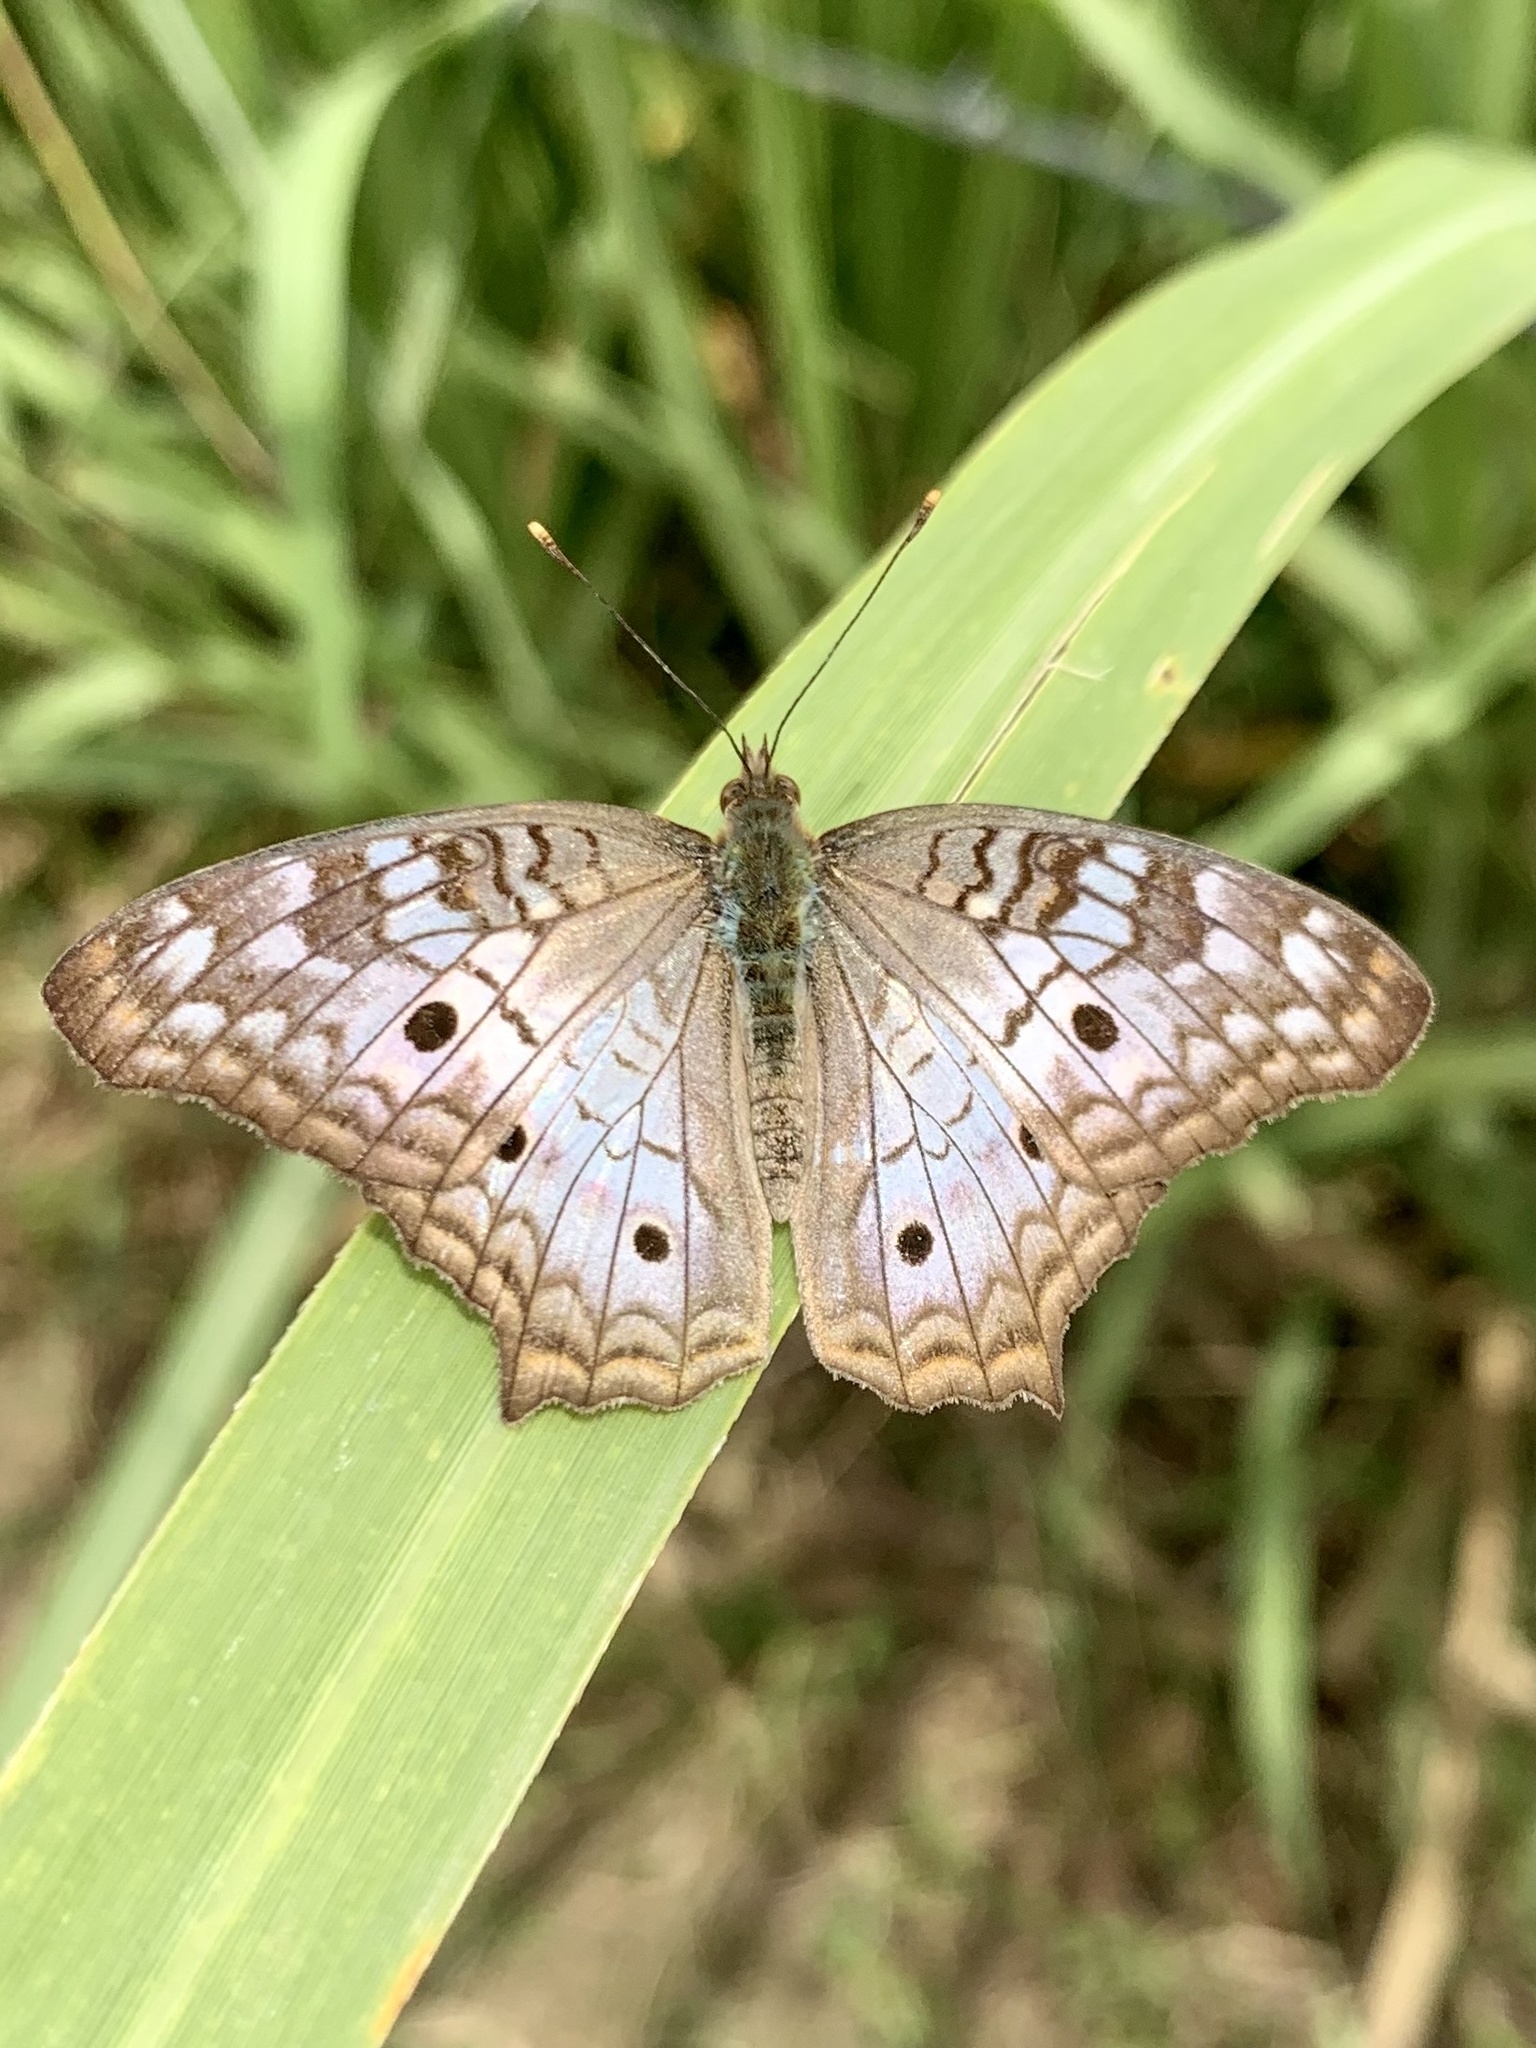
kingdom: Animalia
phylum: Arthropoda
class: Insecta
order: Lepidoptera
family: Nymphalidae
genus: Anartia
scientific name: Anartia jatrophae
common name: White peacock
